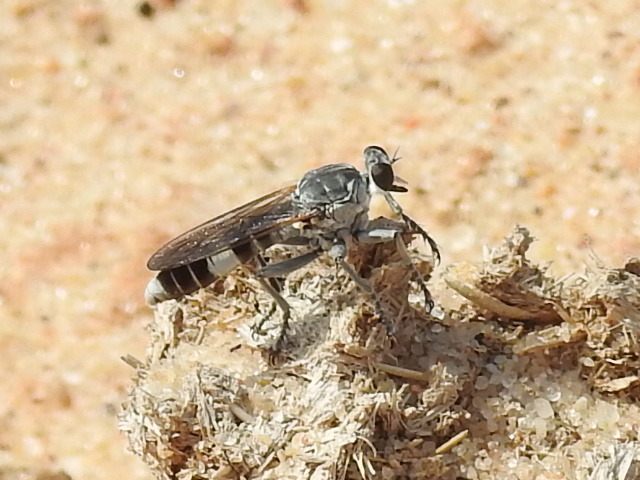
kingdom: Animalia
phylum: Arthropoda
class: Insecta
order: Diptera
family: Asilidae
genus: Stichopogon
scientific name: Stichopogon trifasciatus
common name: Three-banded robber fly
